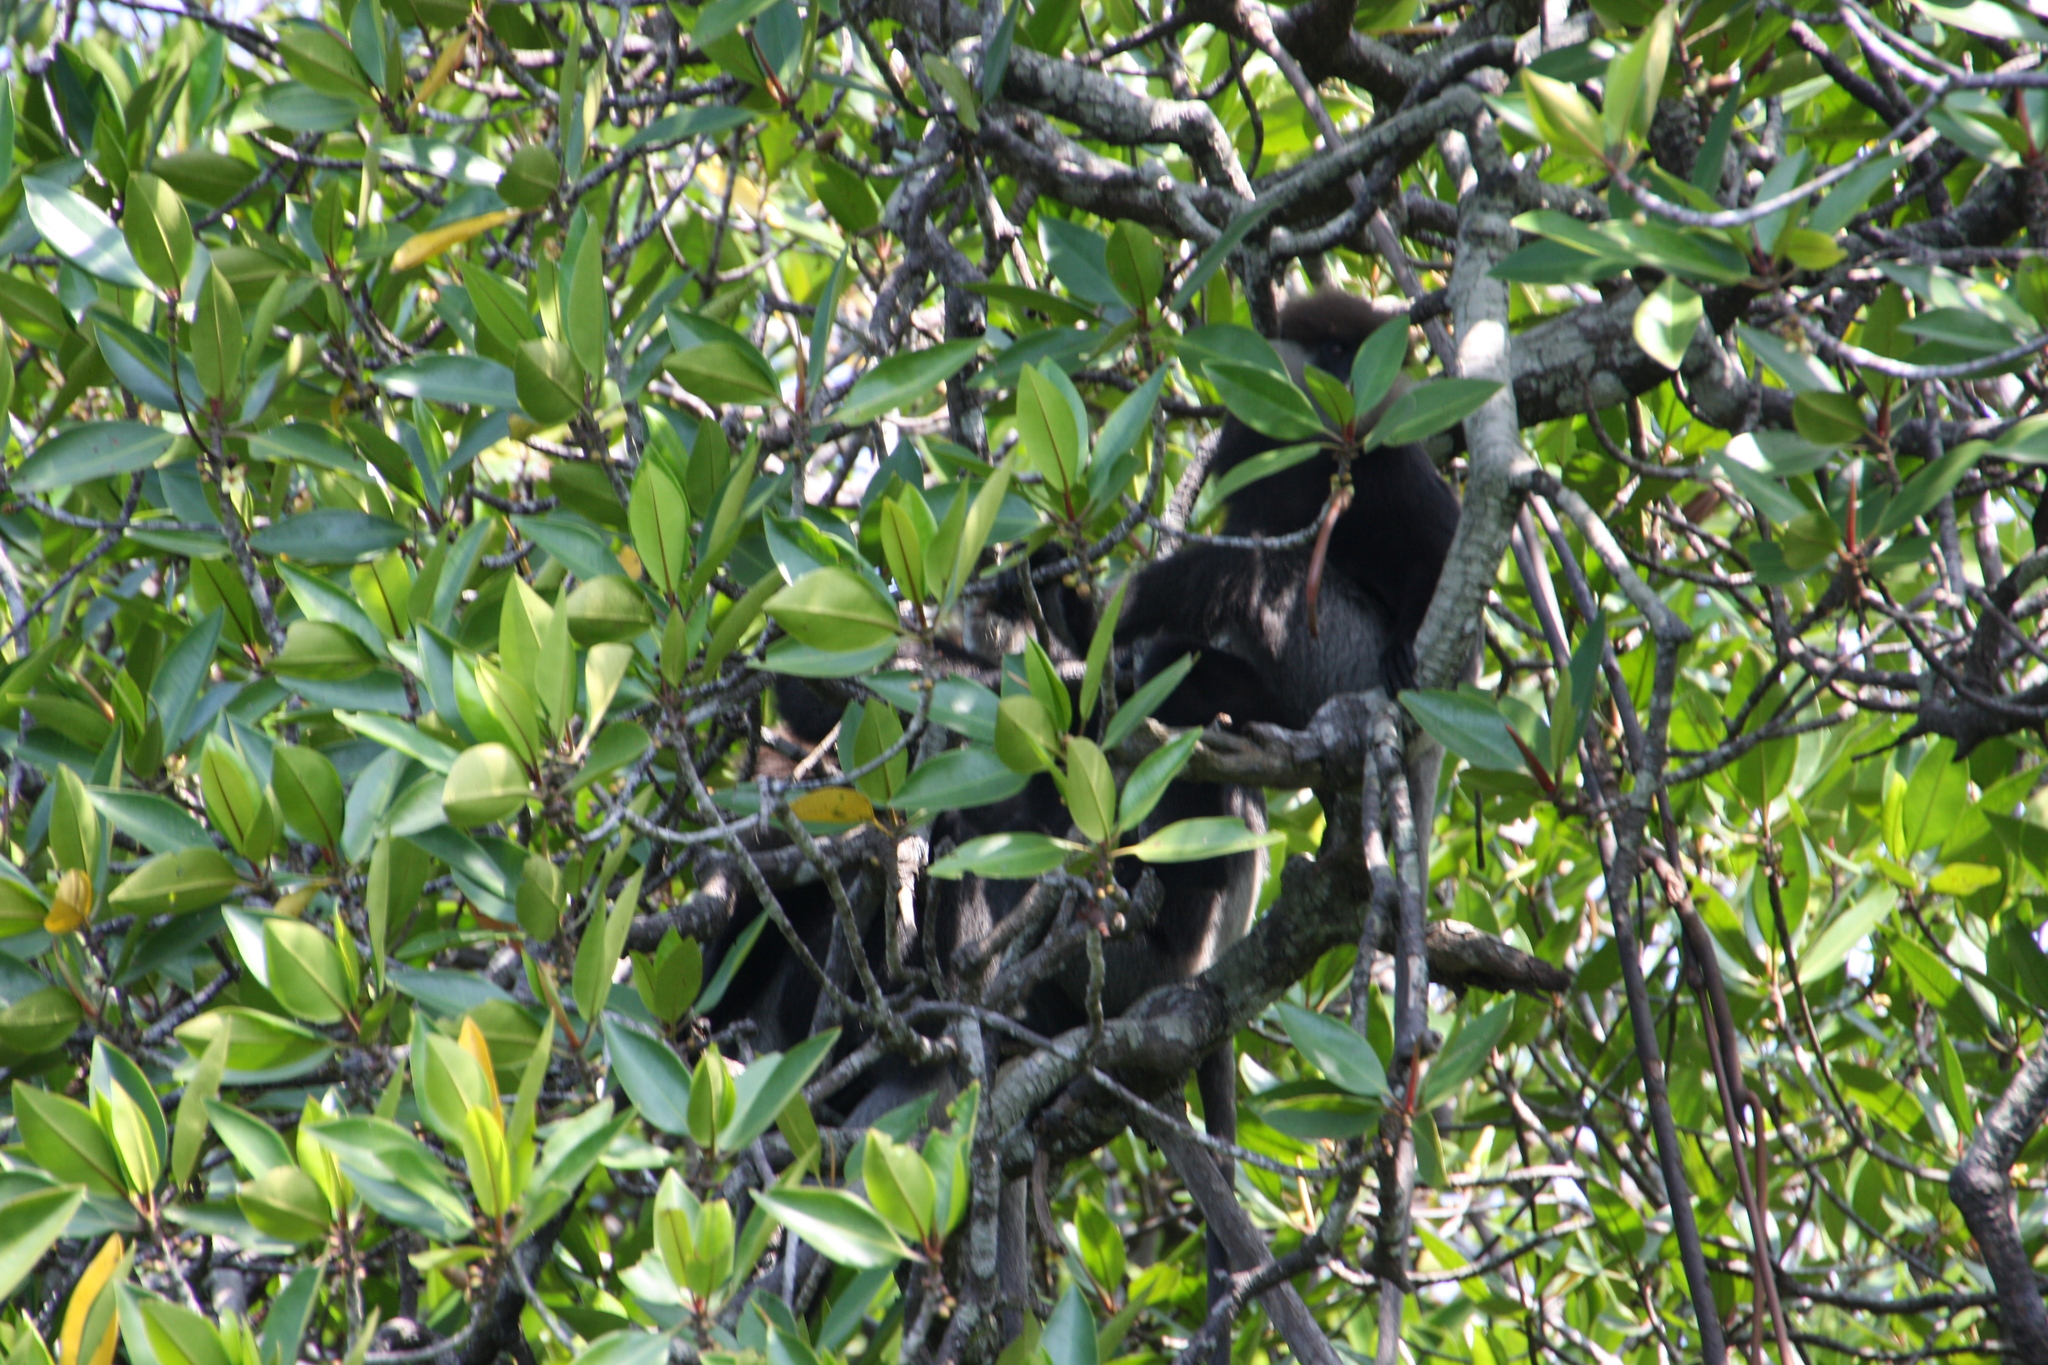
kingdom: Animalia
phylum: Chordata
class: Mammalia
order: Primates
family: Cercopithecidae
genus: Semnopithecus
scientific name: Semnopithecus vetulus
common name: Purple-faced langur
